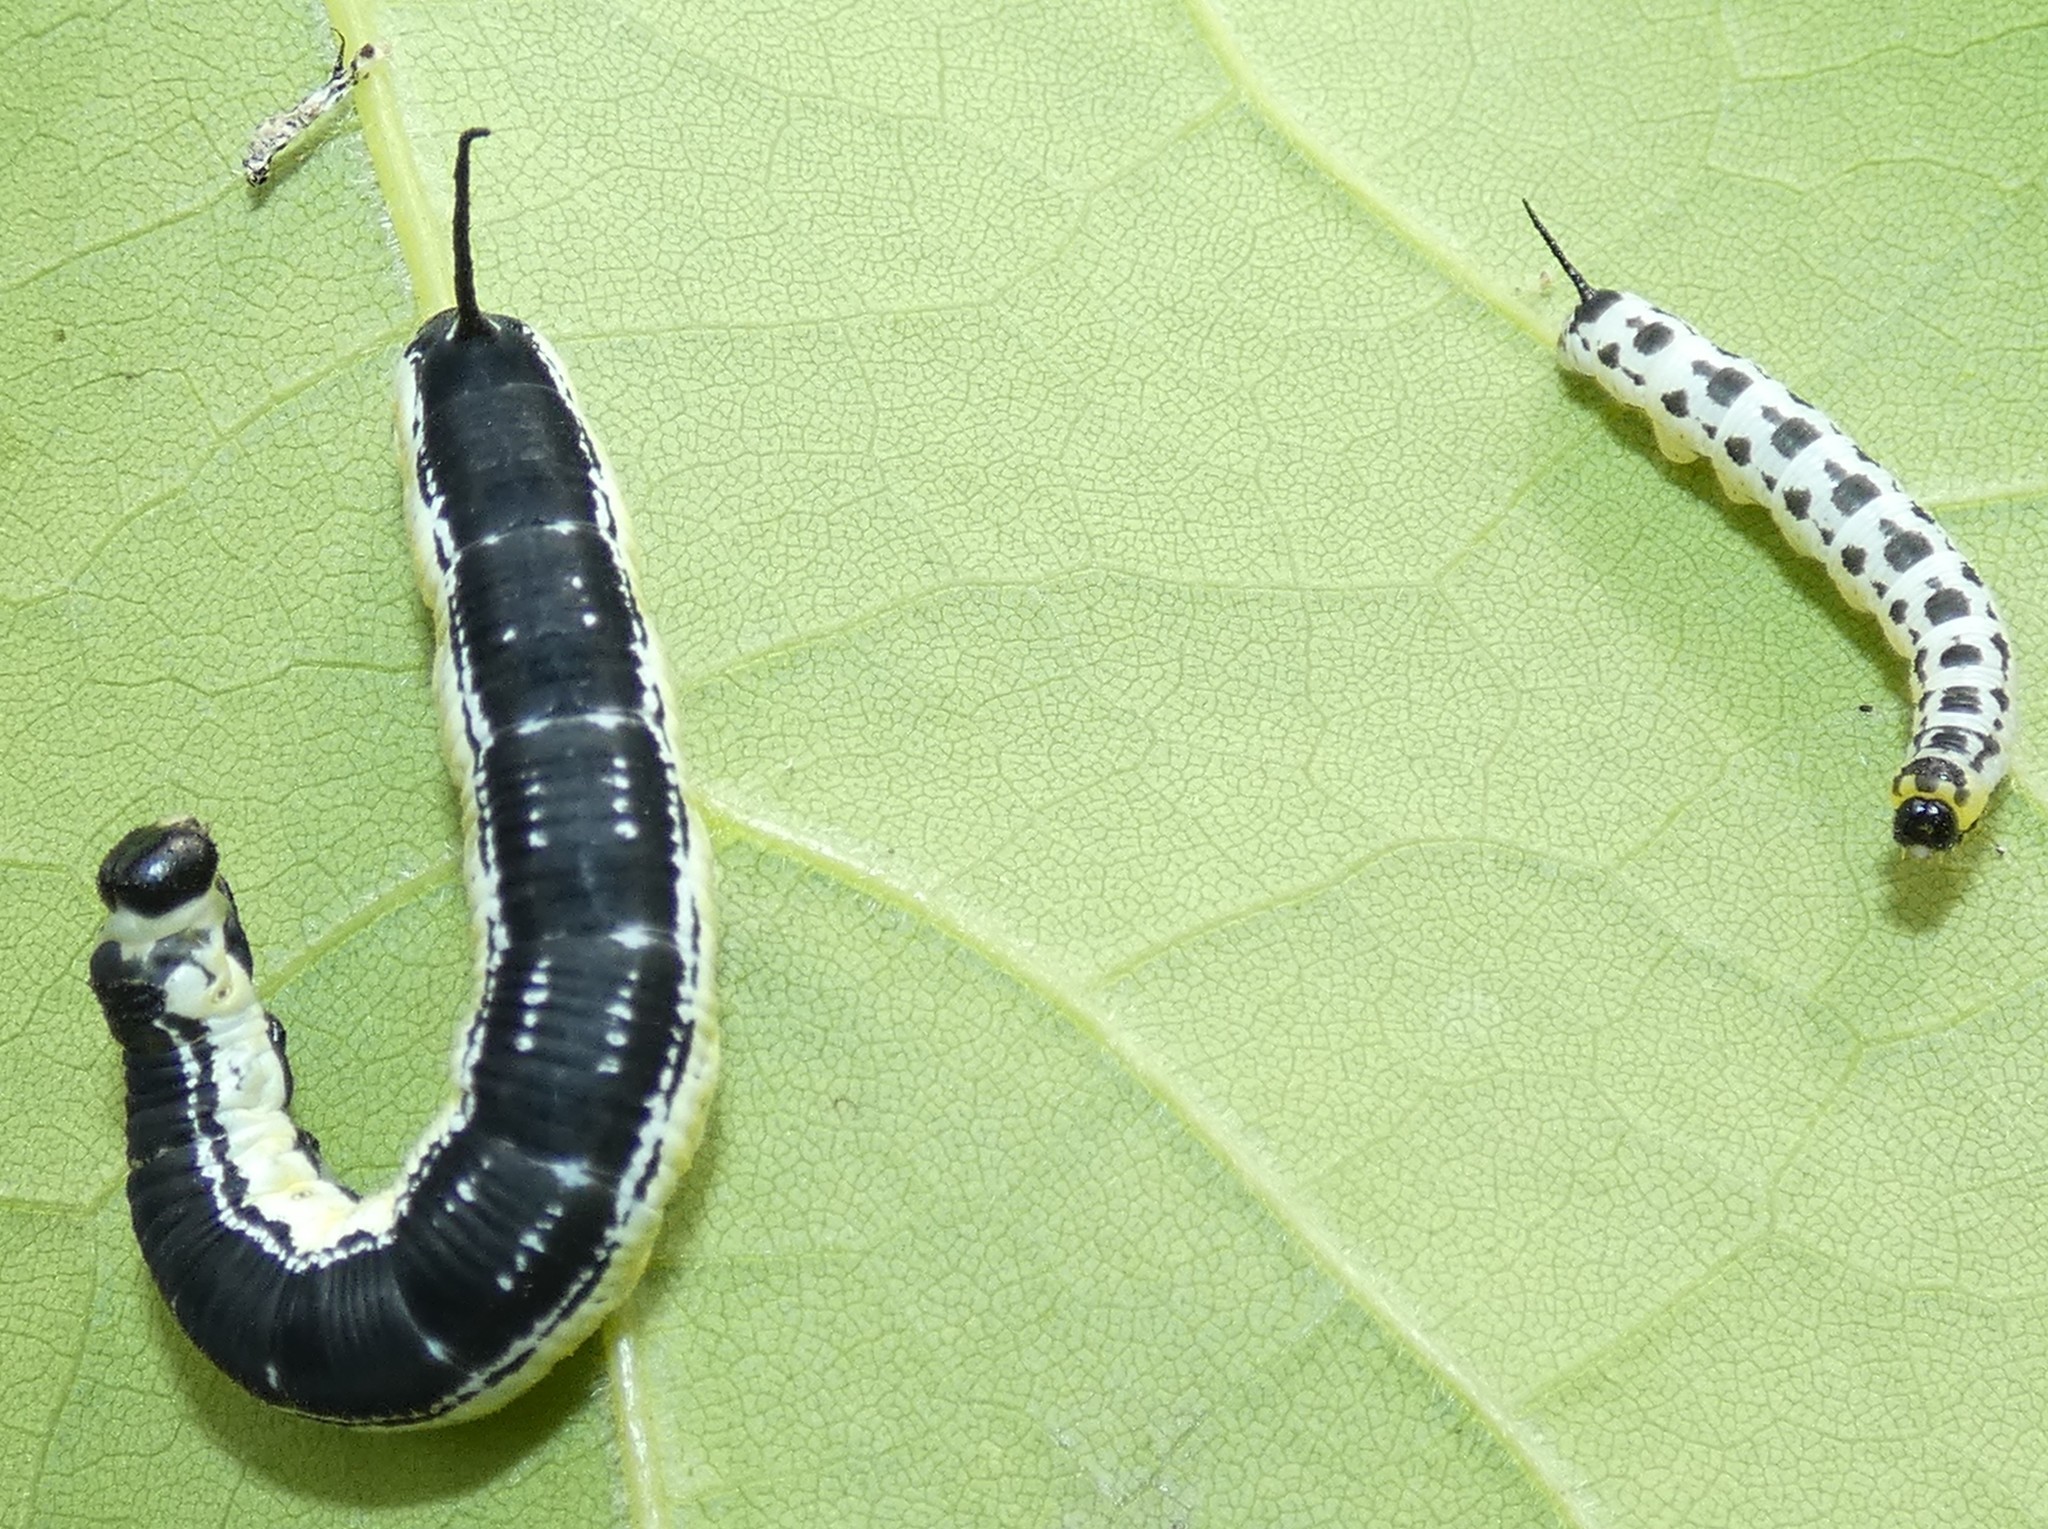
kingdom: Animalia
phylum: Arthropoda
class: Insecta
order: Lepidoptera
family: Sphingidae
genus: Ceratomia
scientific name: Ceratomia catalpae
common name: Catalpa hornworm
